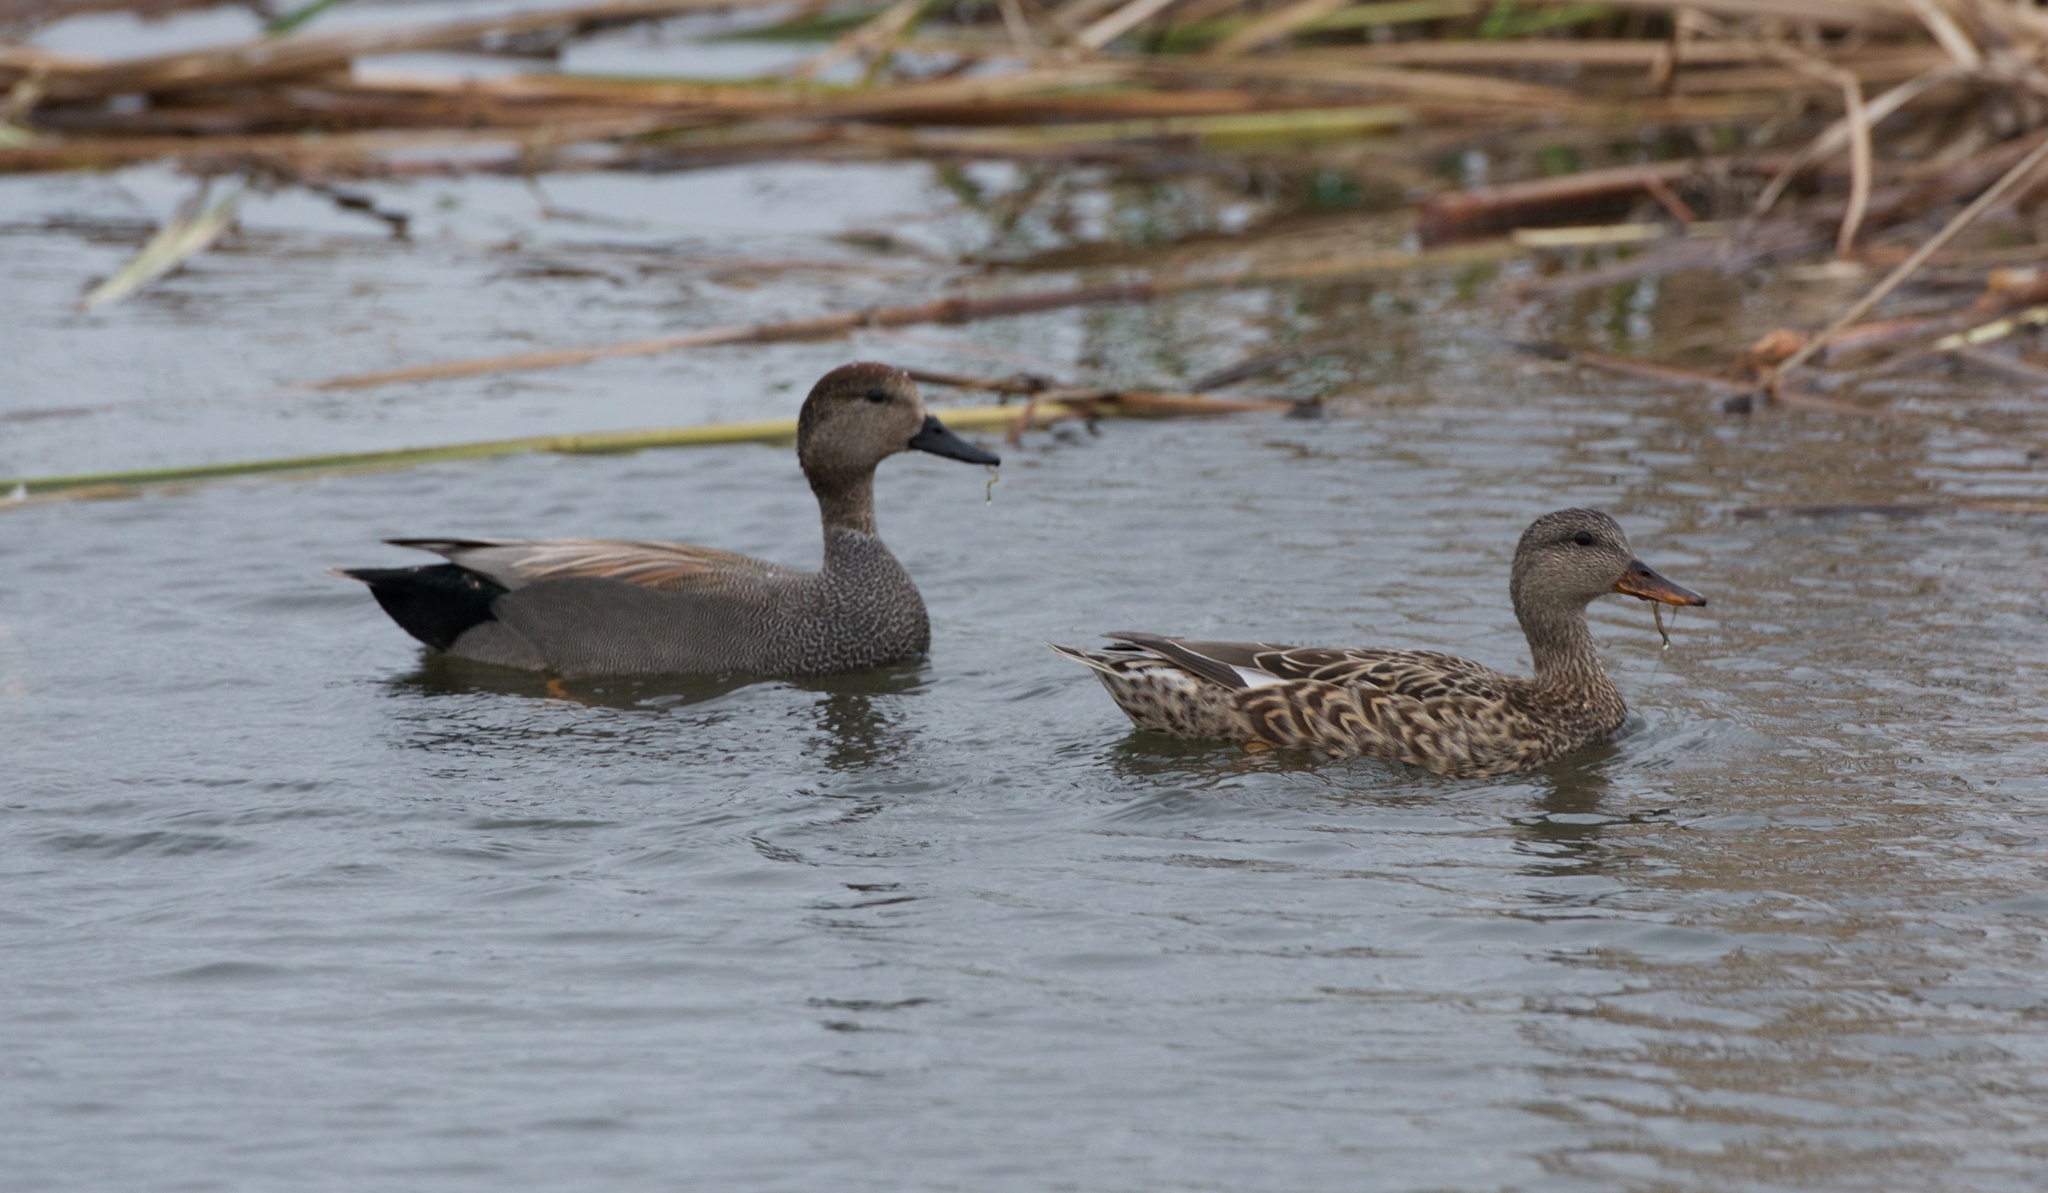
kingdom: Animalia
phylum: Chordata
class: Aves
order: Anseriformes
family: Anatidae
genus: Mareca
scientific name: Mareca strepera
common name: Gadwall
